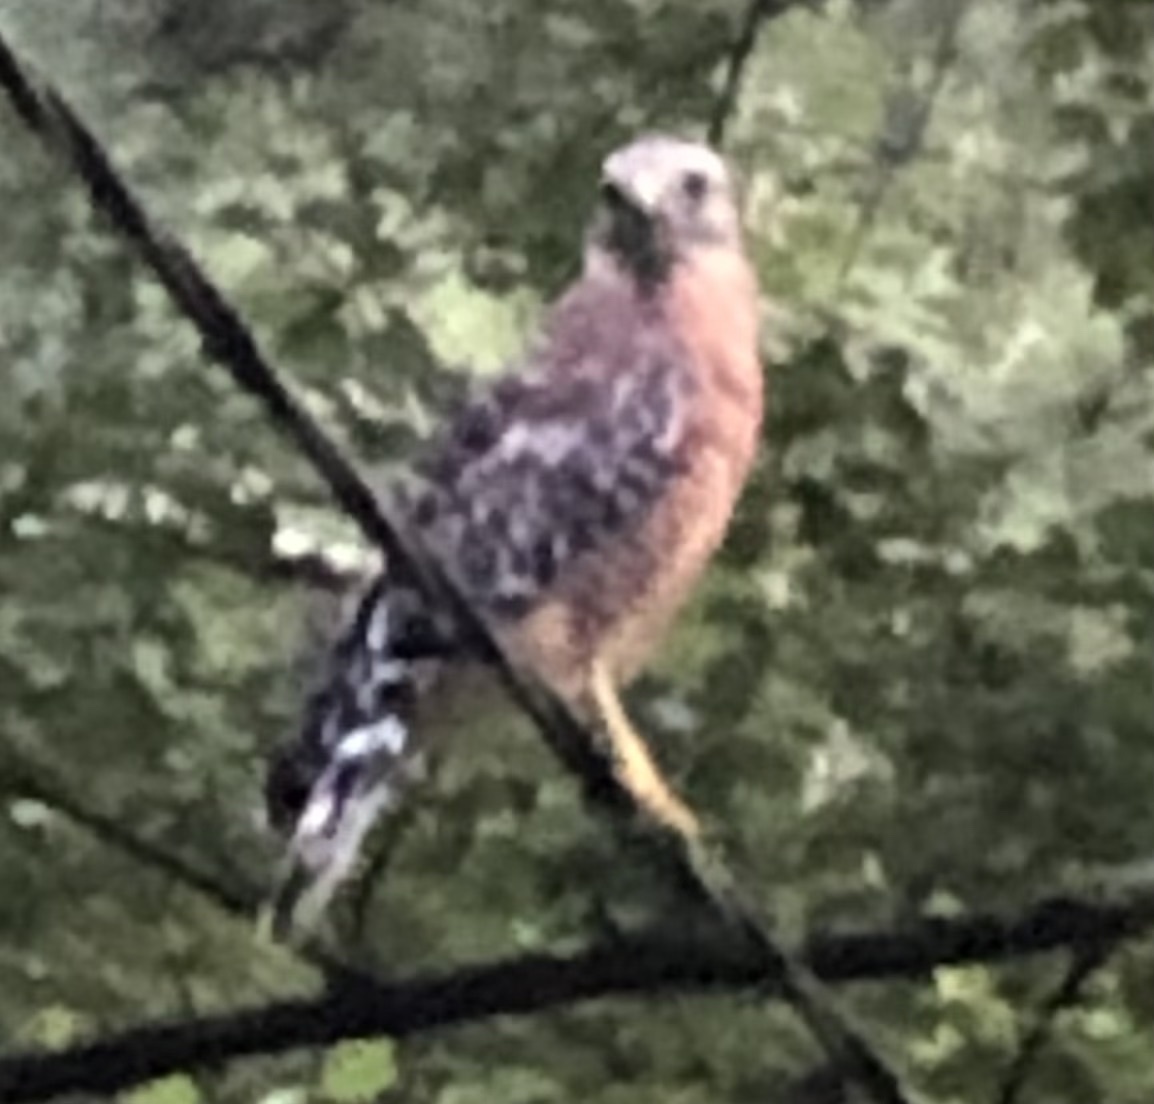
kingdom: Animalia
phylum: Chordata
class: Aves
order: Accipitriformes
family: Accipitridae
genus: Buteo
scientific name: Buteo lineatus
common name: Red-shouldered hawk
